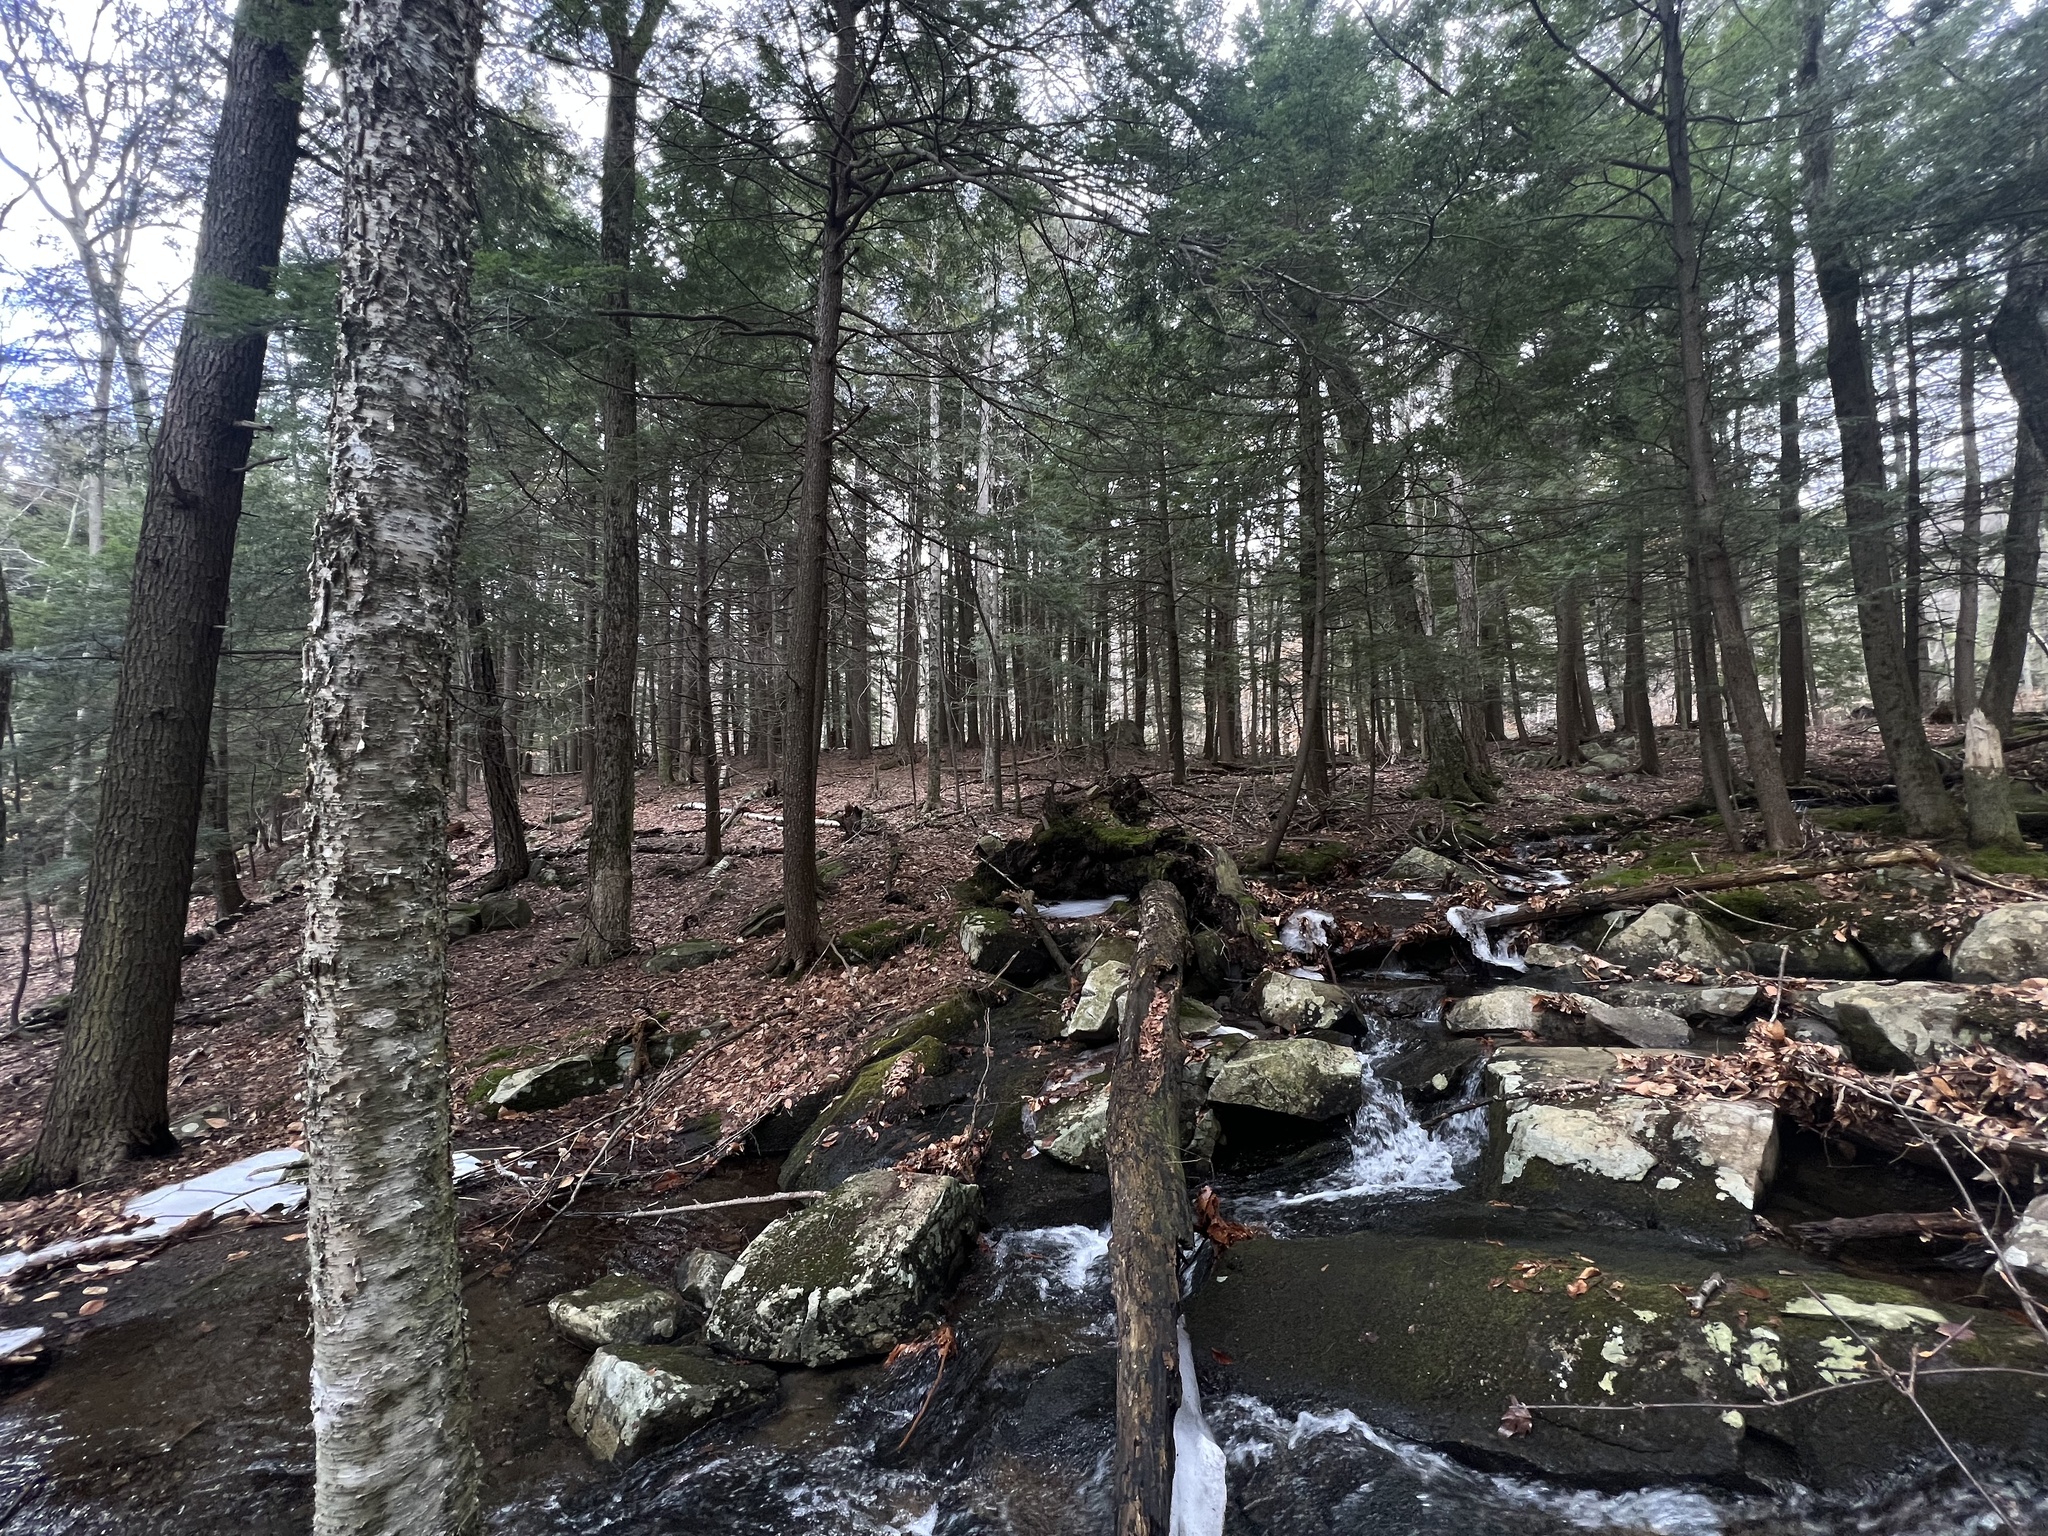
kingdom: Plantae
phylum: Tracheophyta
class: Pinopsida
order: Pinales
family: Pinaceae
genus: Tsuga
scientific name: Tsuga canadensis
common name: Eastern hemlock
